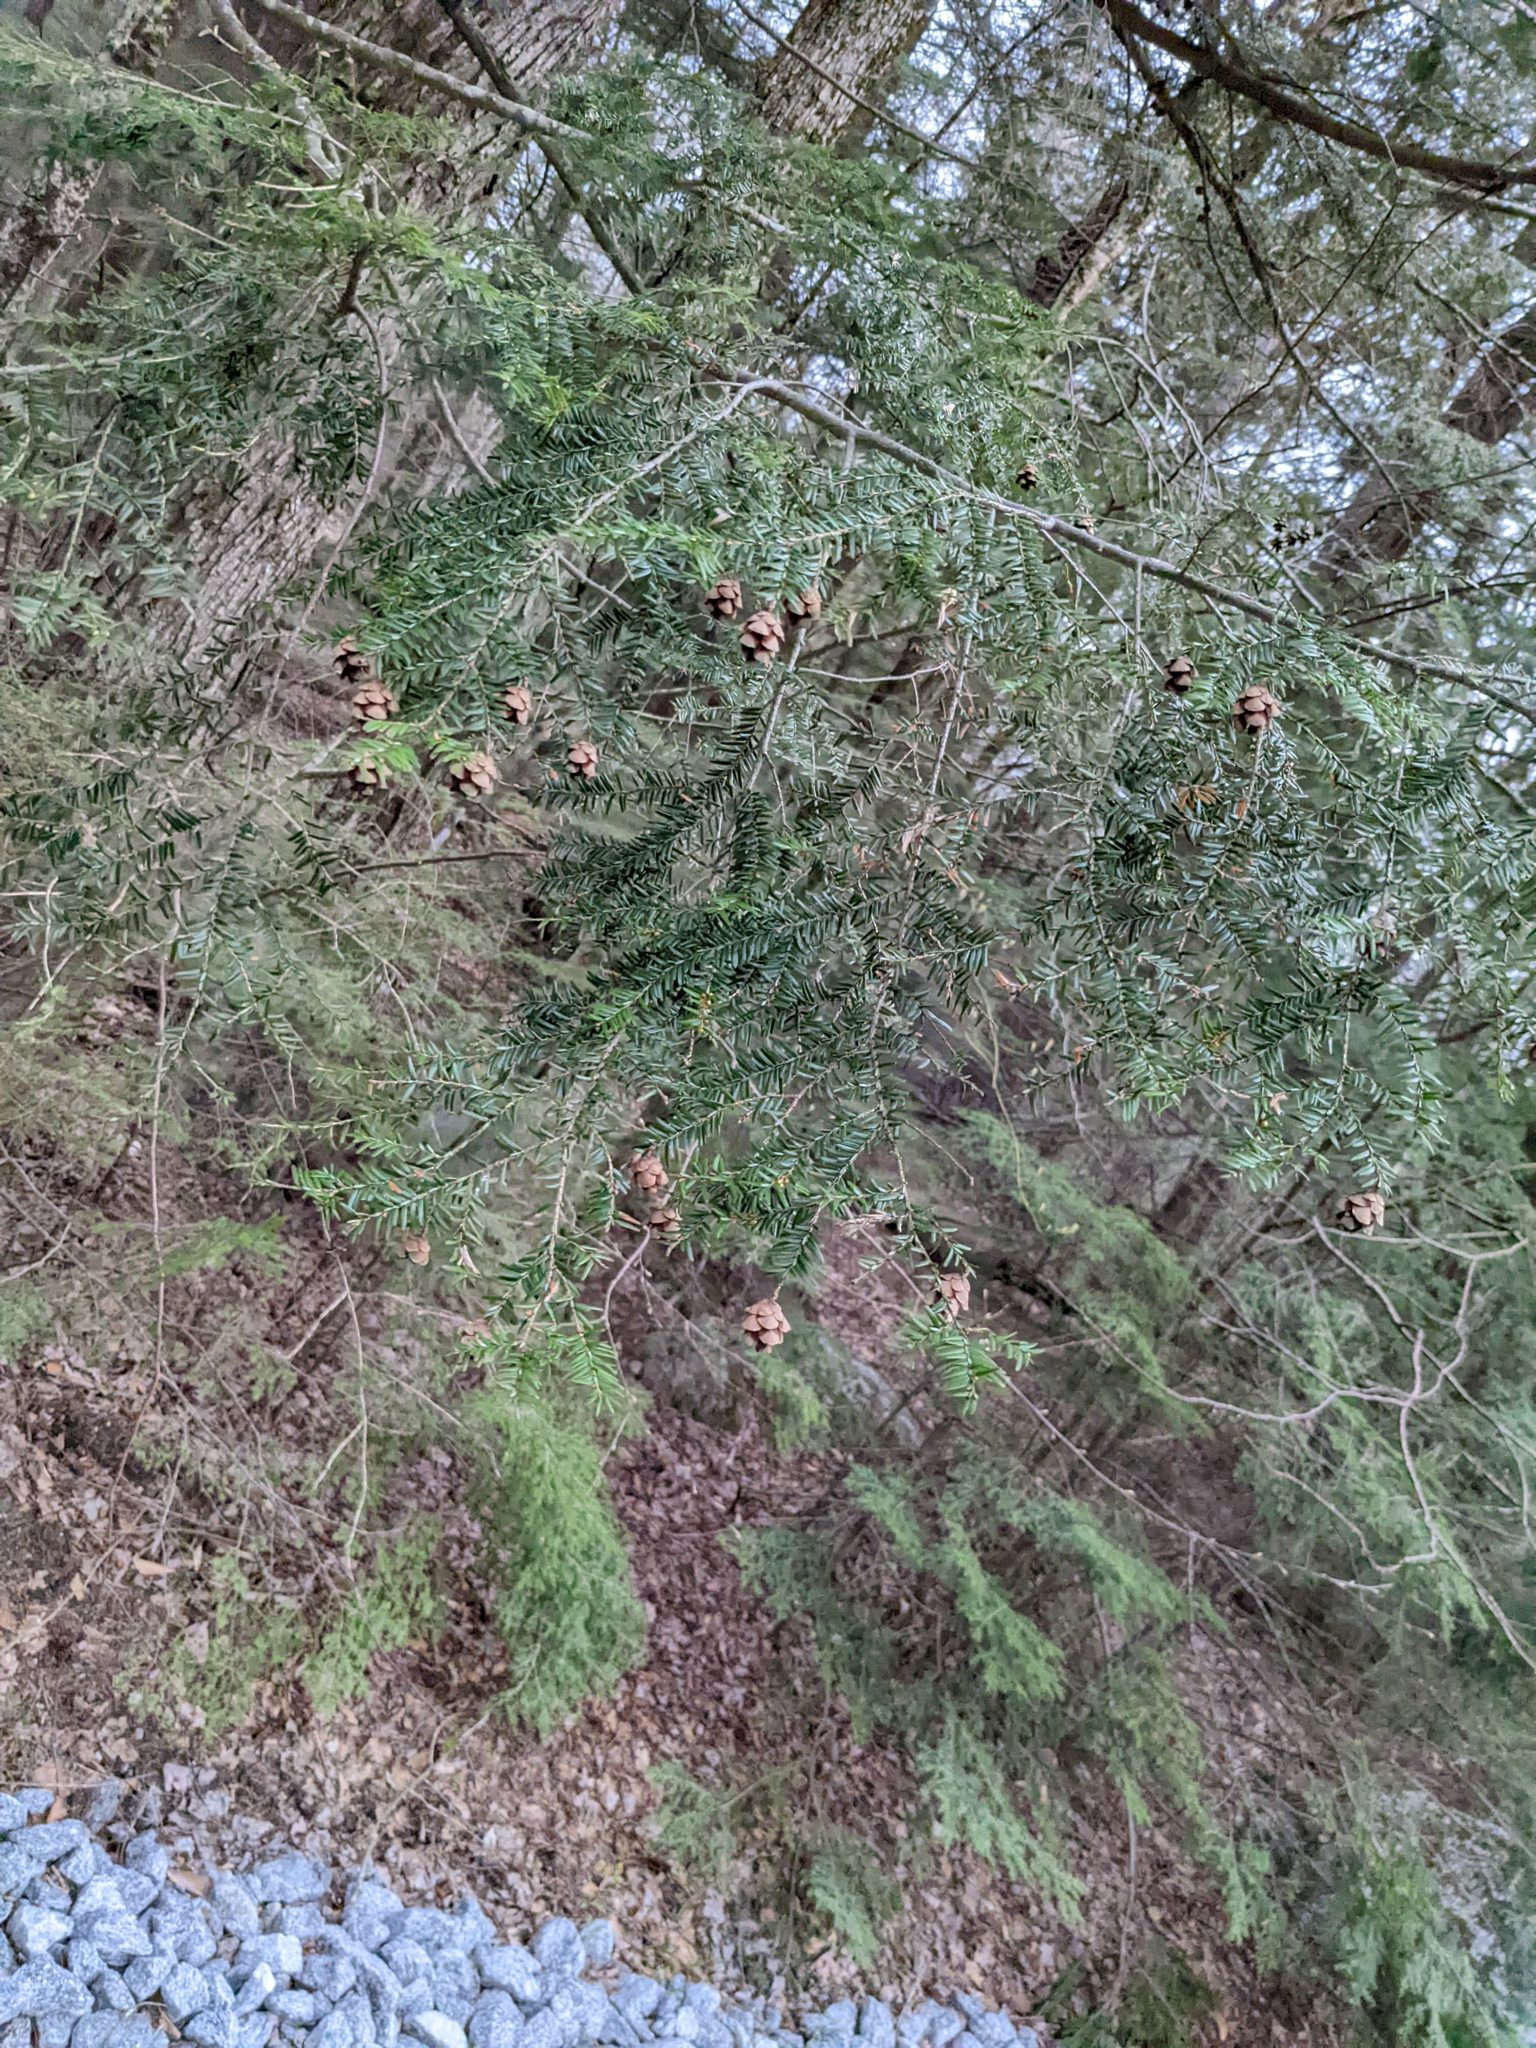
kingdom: Plantae
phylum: Tracheophyta
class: Pinopsida
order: Pinales
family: Pinaceae
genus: Tsuga
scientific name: Tsuga canadensis
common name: Eastern hemlock
